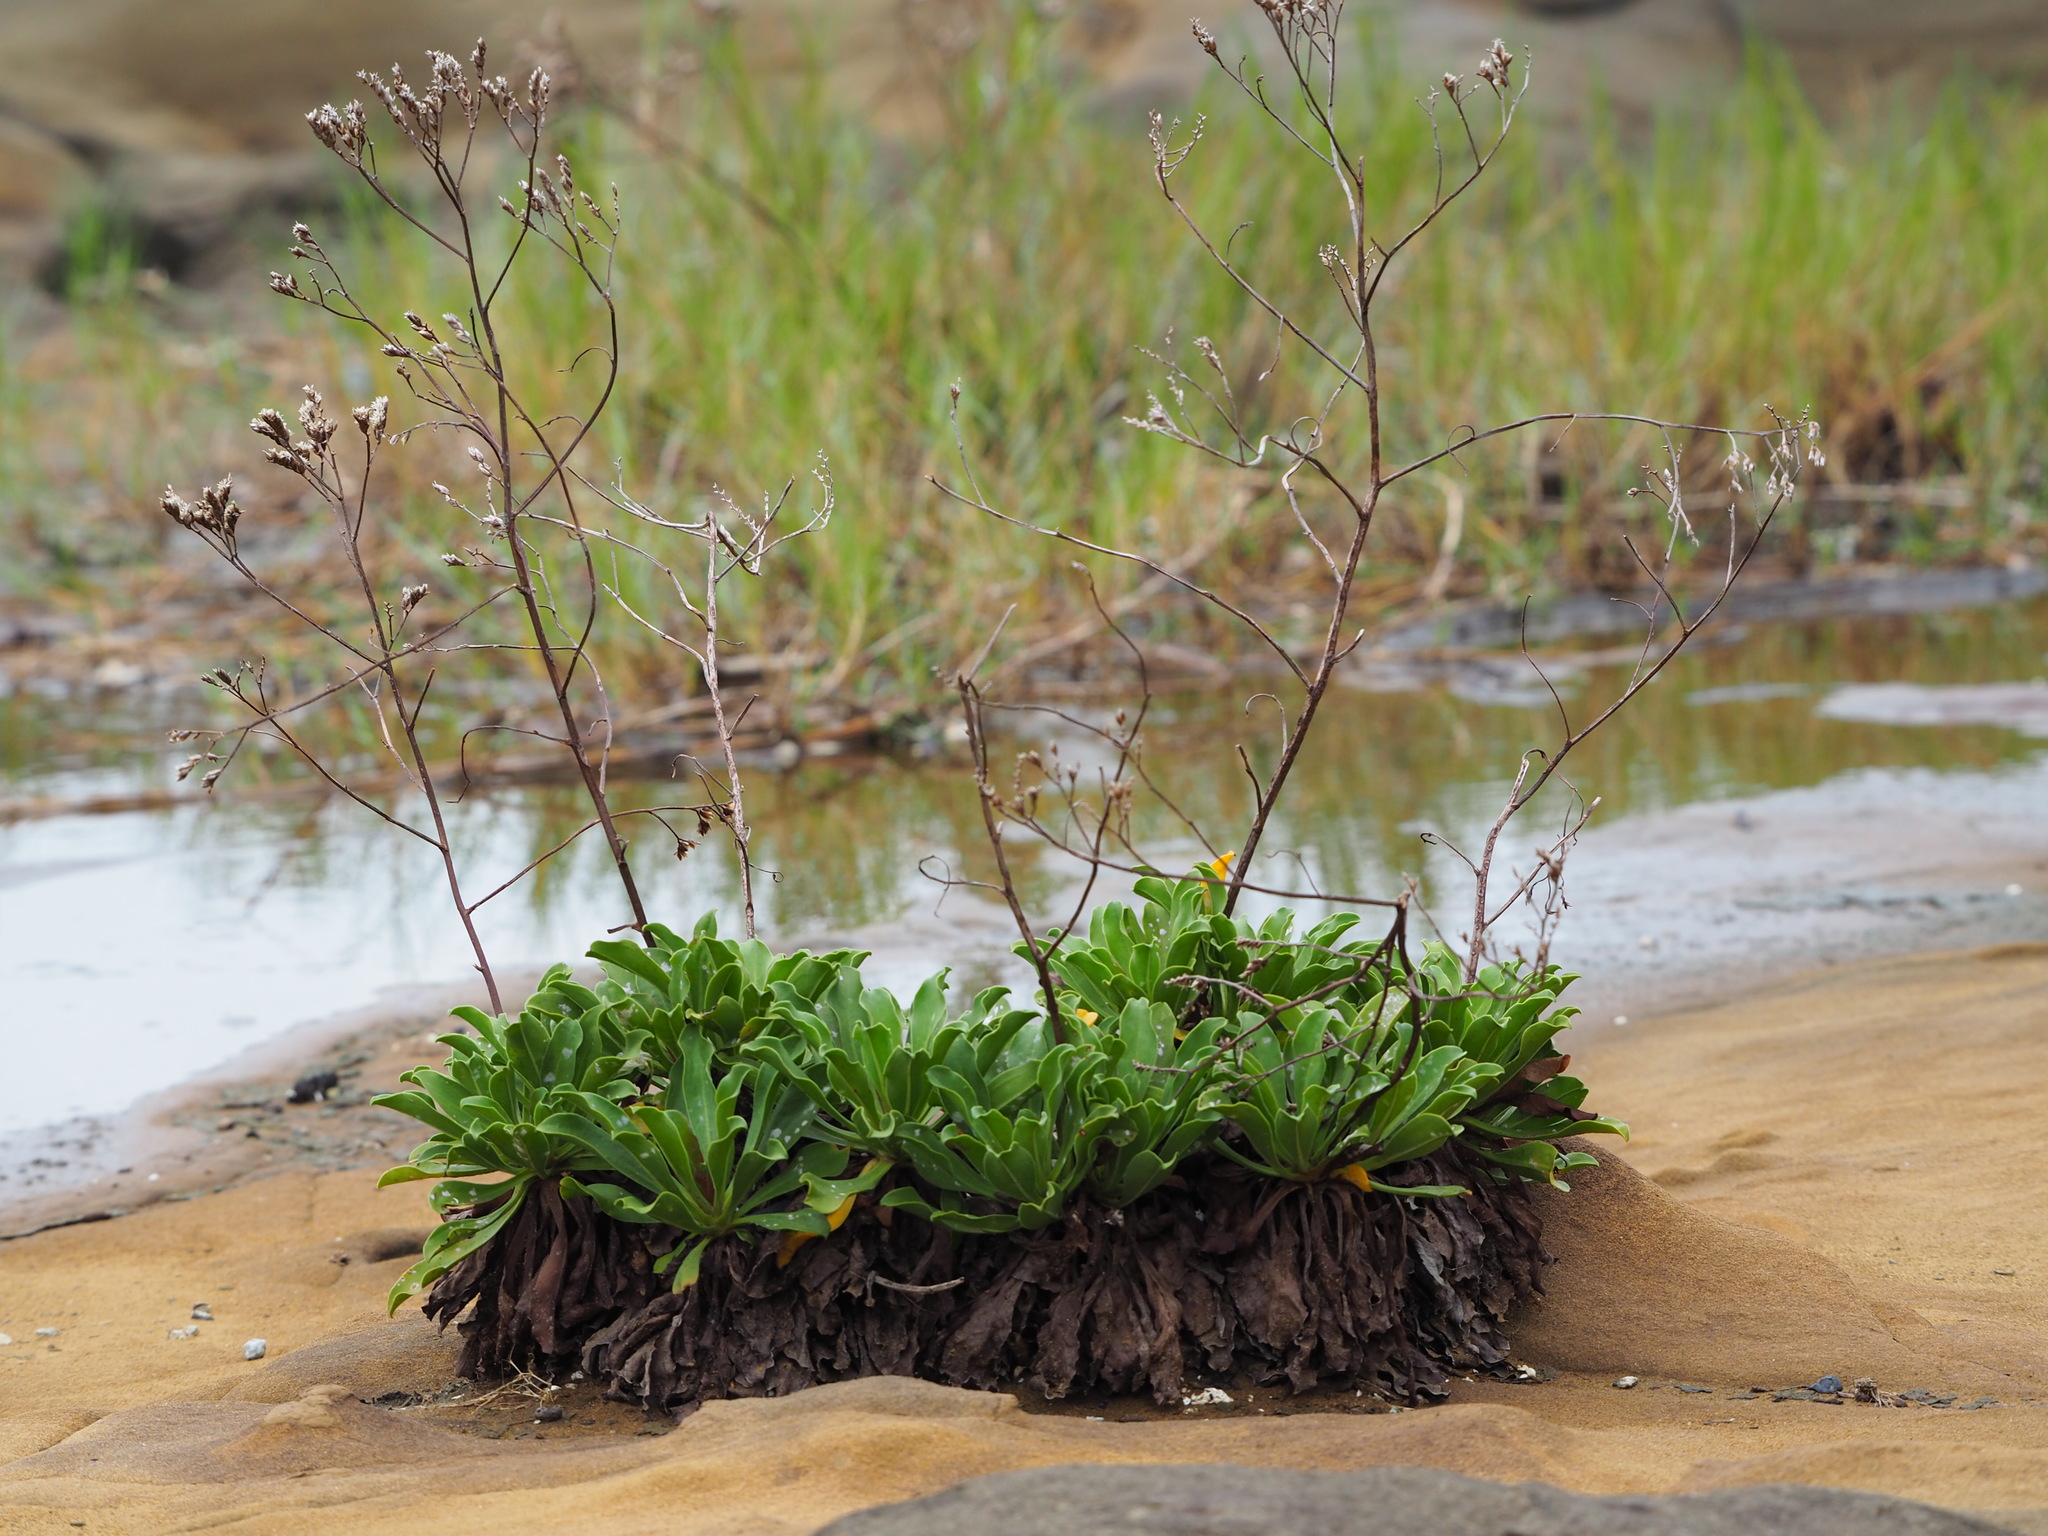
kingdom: Plantae
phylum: Tracheophyta
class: Magnoliopsida
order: Caryophyllales
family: Plumbaginaceae
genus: Limonium
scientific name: Limonium sinense
